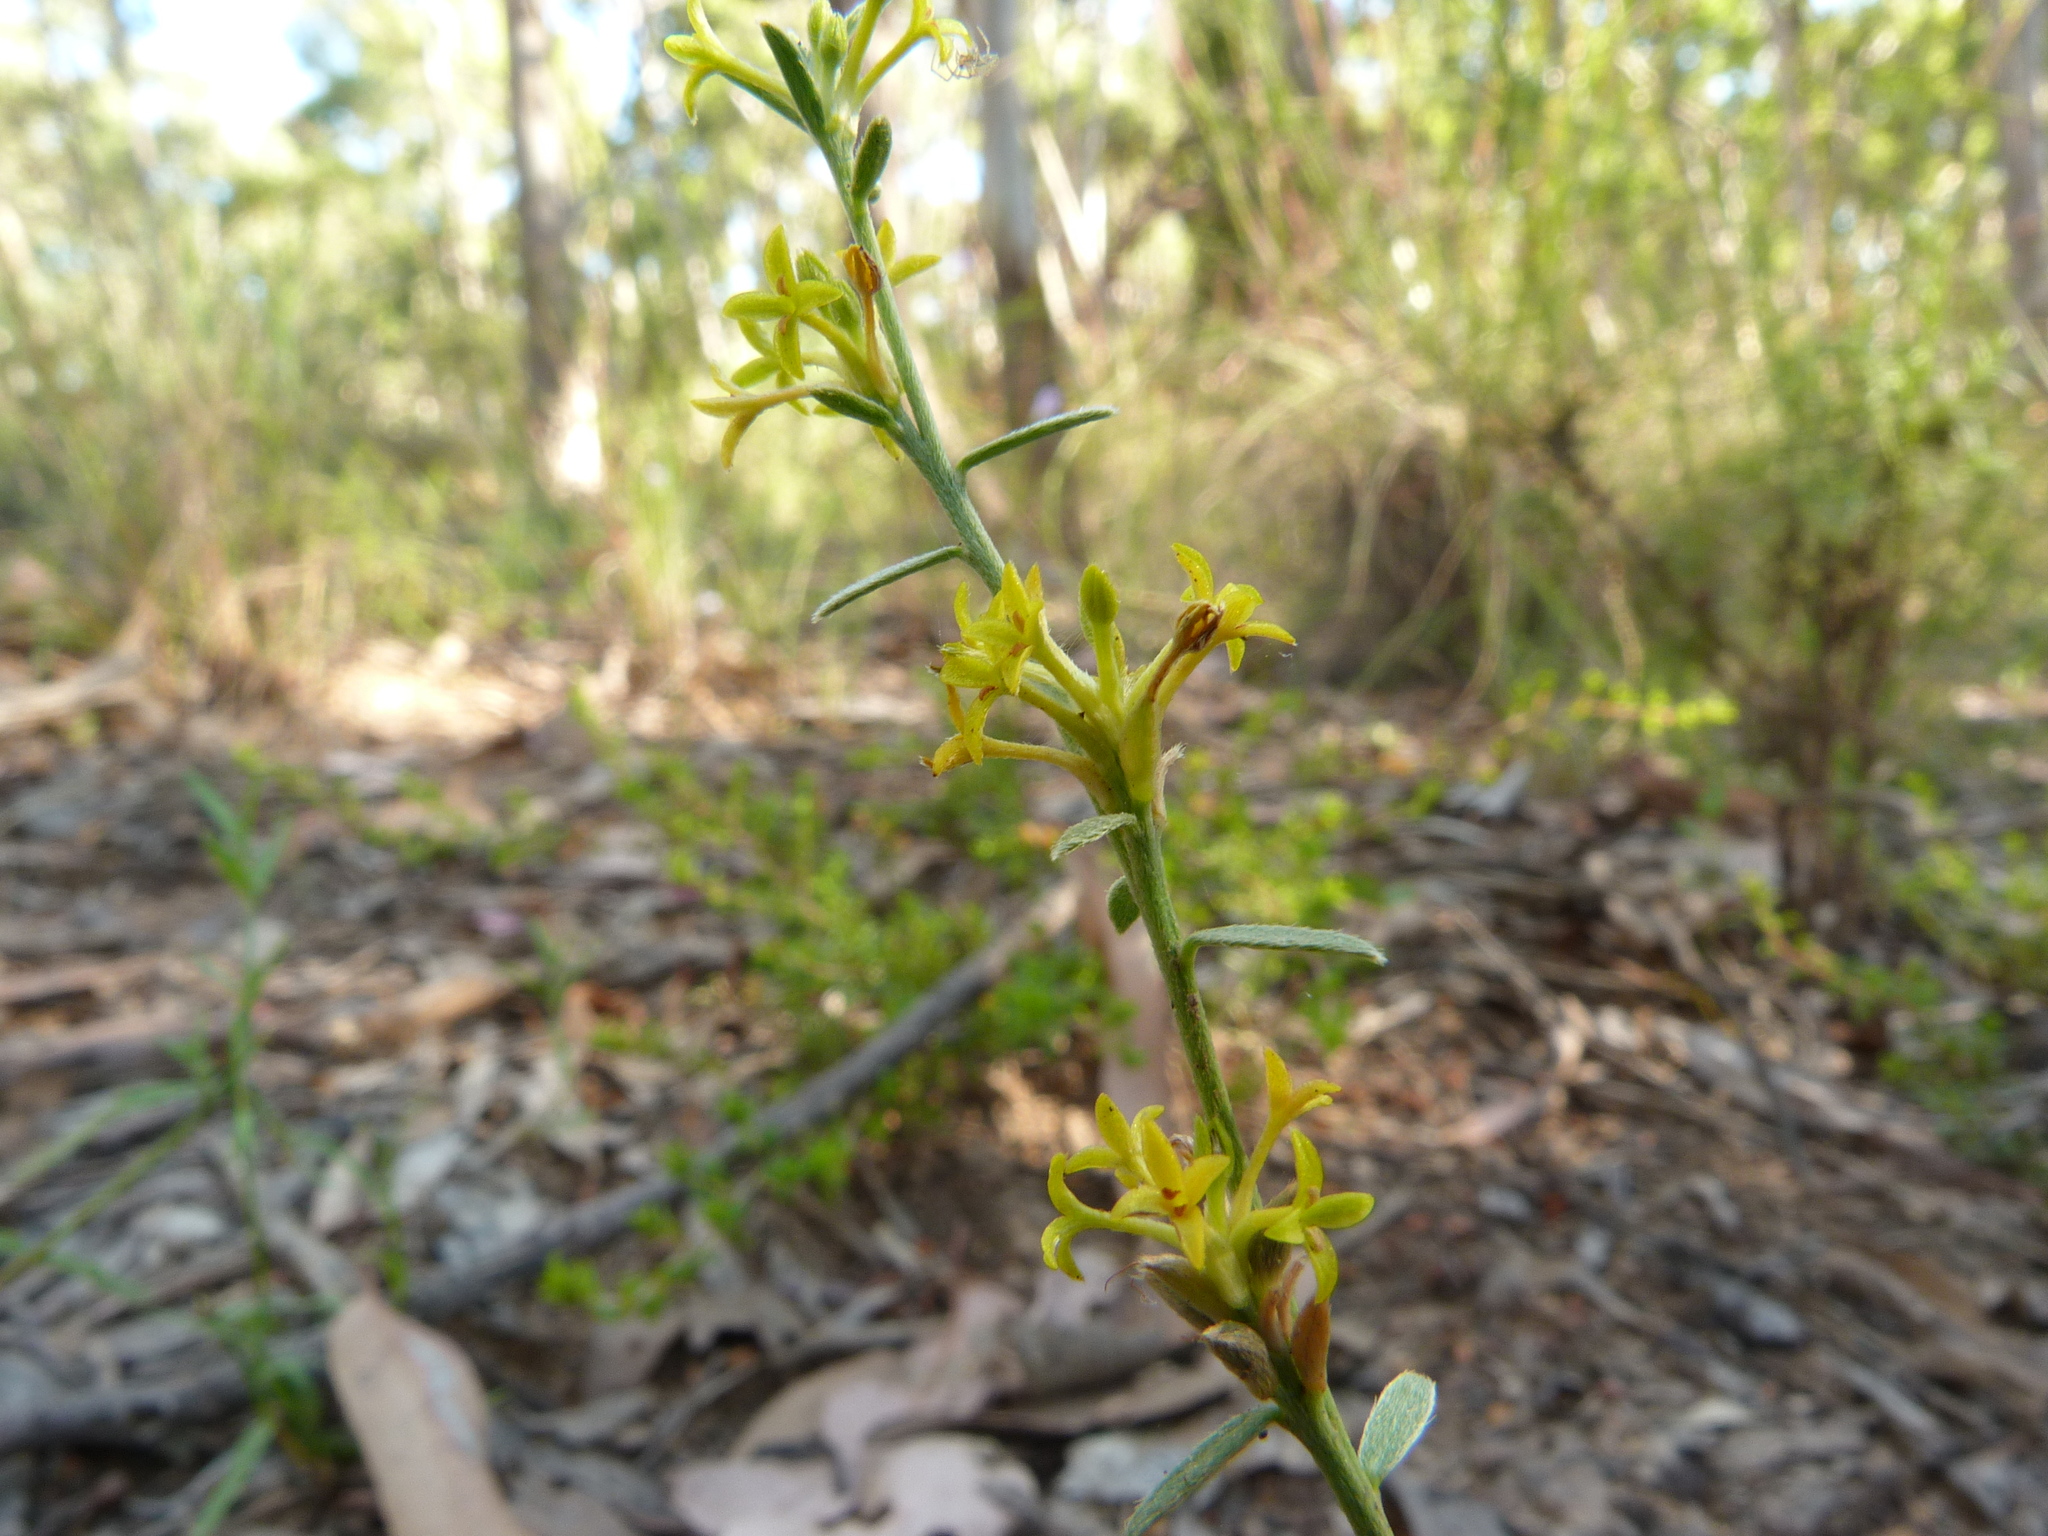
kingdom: Plantae
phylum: Tracheophyta
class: Magnoliopsida
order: Malvales
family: Thymelaeaceae
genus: Pimelea
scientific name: Pimelea curviflora
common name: Curved riceflower
